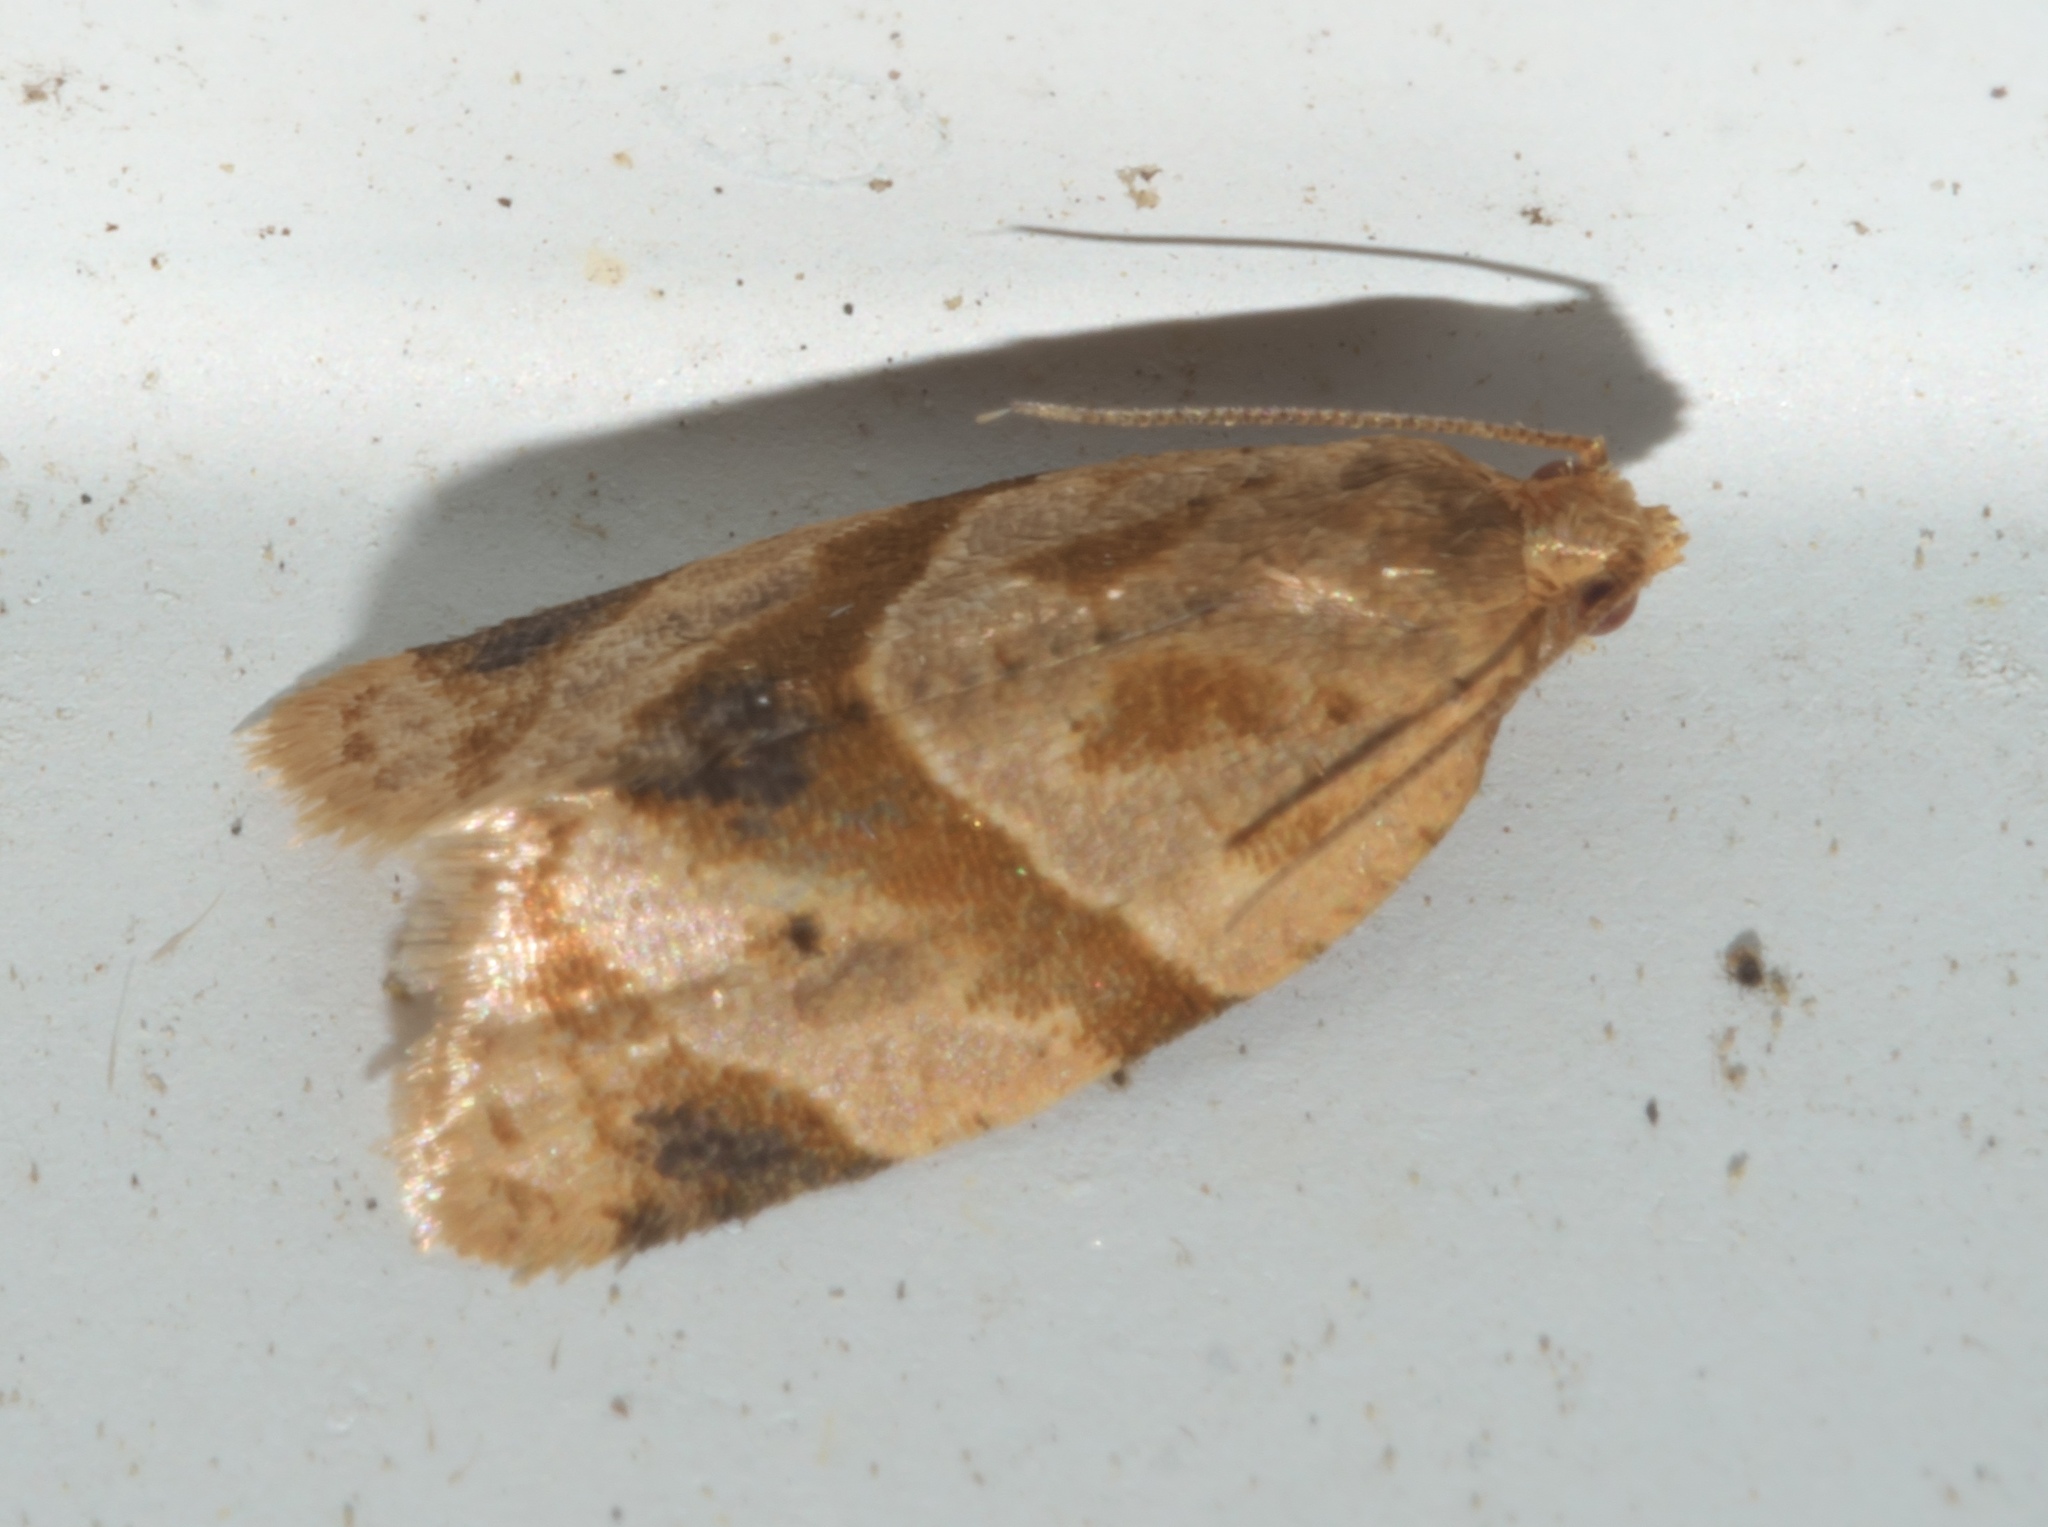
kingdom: Animalia
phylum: Arthropoda
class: Insecta
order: Lepidoptera
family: Tortricidae
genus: Clepsis
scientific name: Clepsis peritana
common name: Garden tortrix
